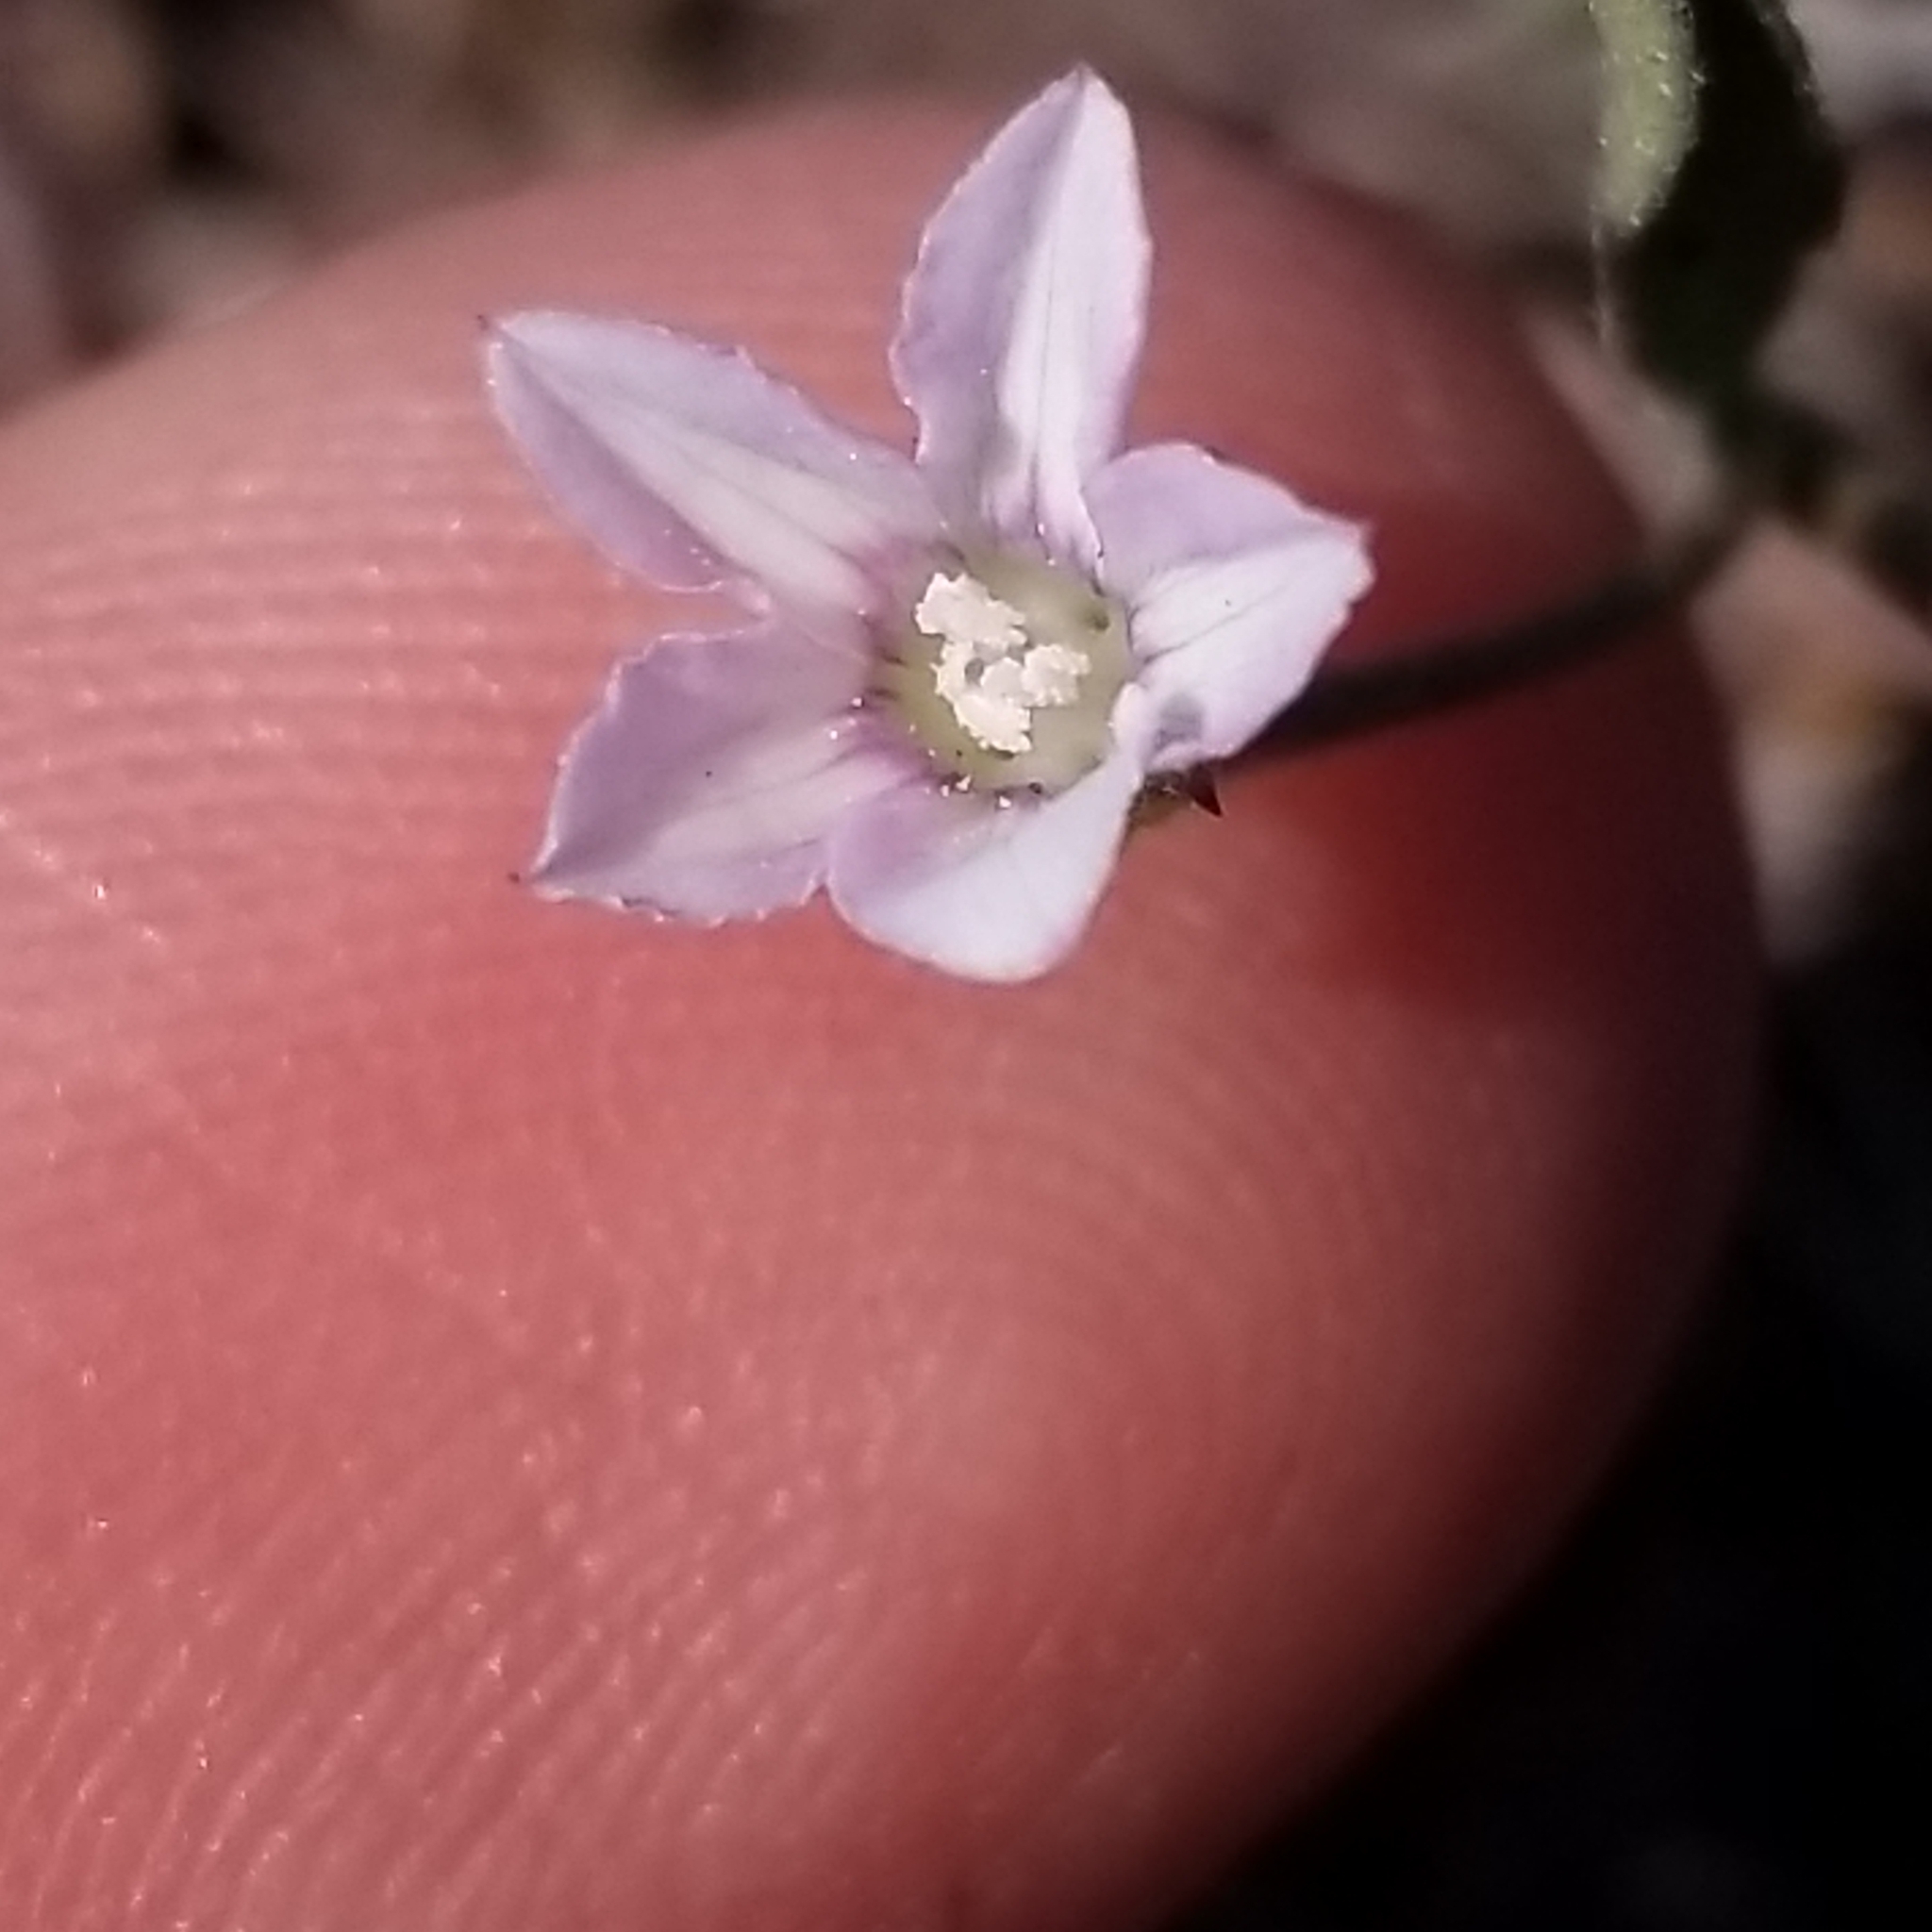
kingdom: Plantae
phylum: Tracheophyta
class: Magnoliopsida
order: Solanales
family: Convolvulaceae
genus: Convolvulus
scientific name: Convolvulus simulans
